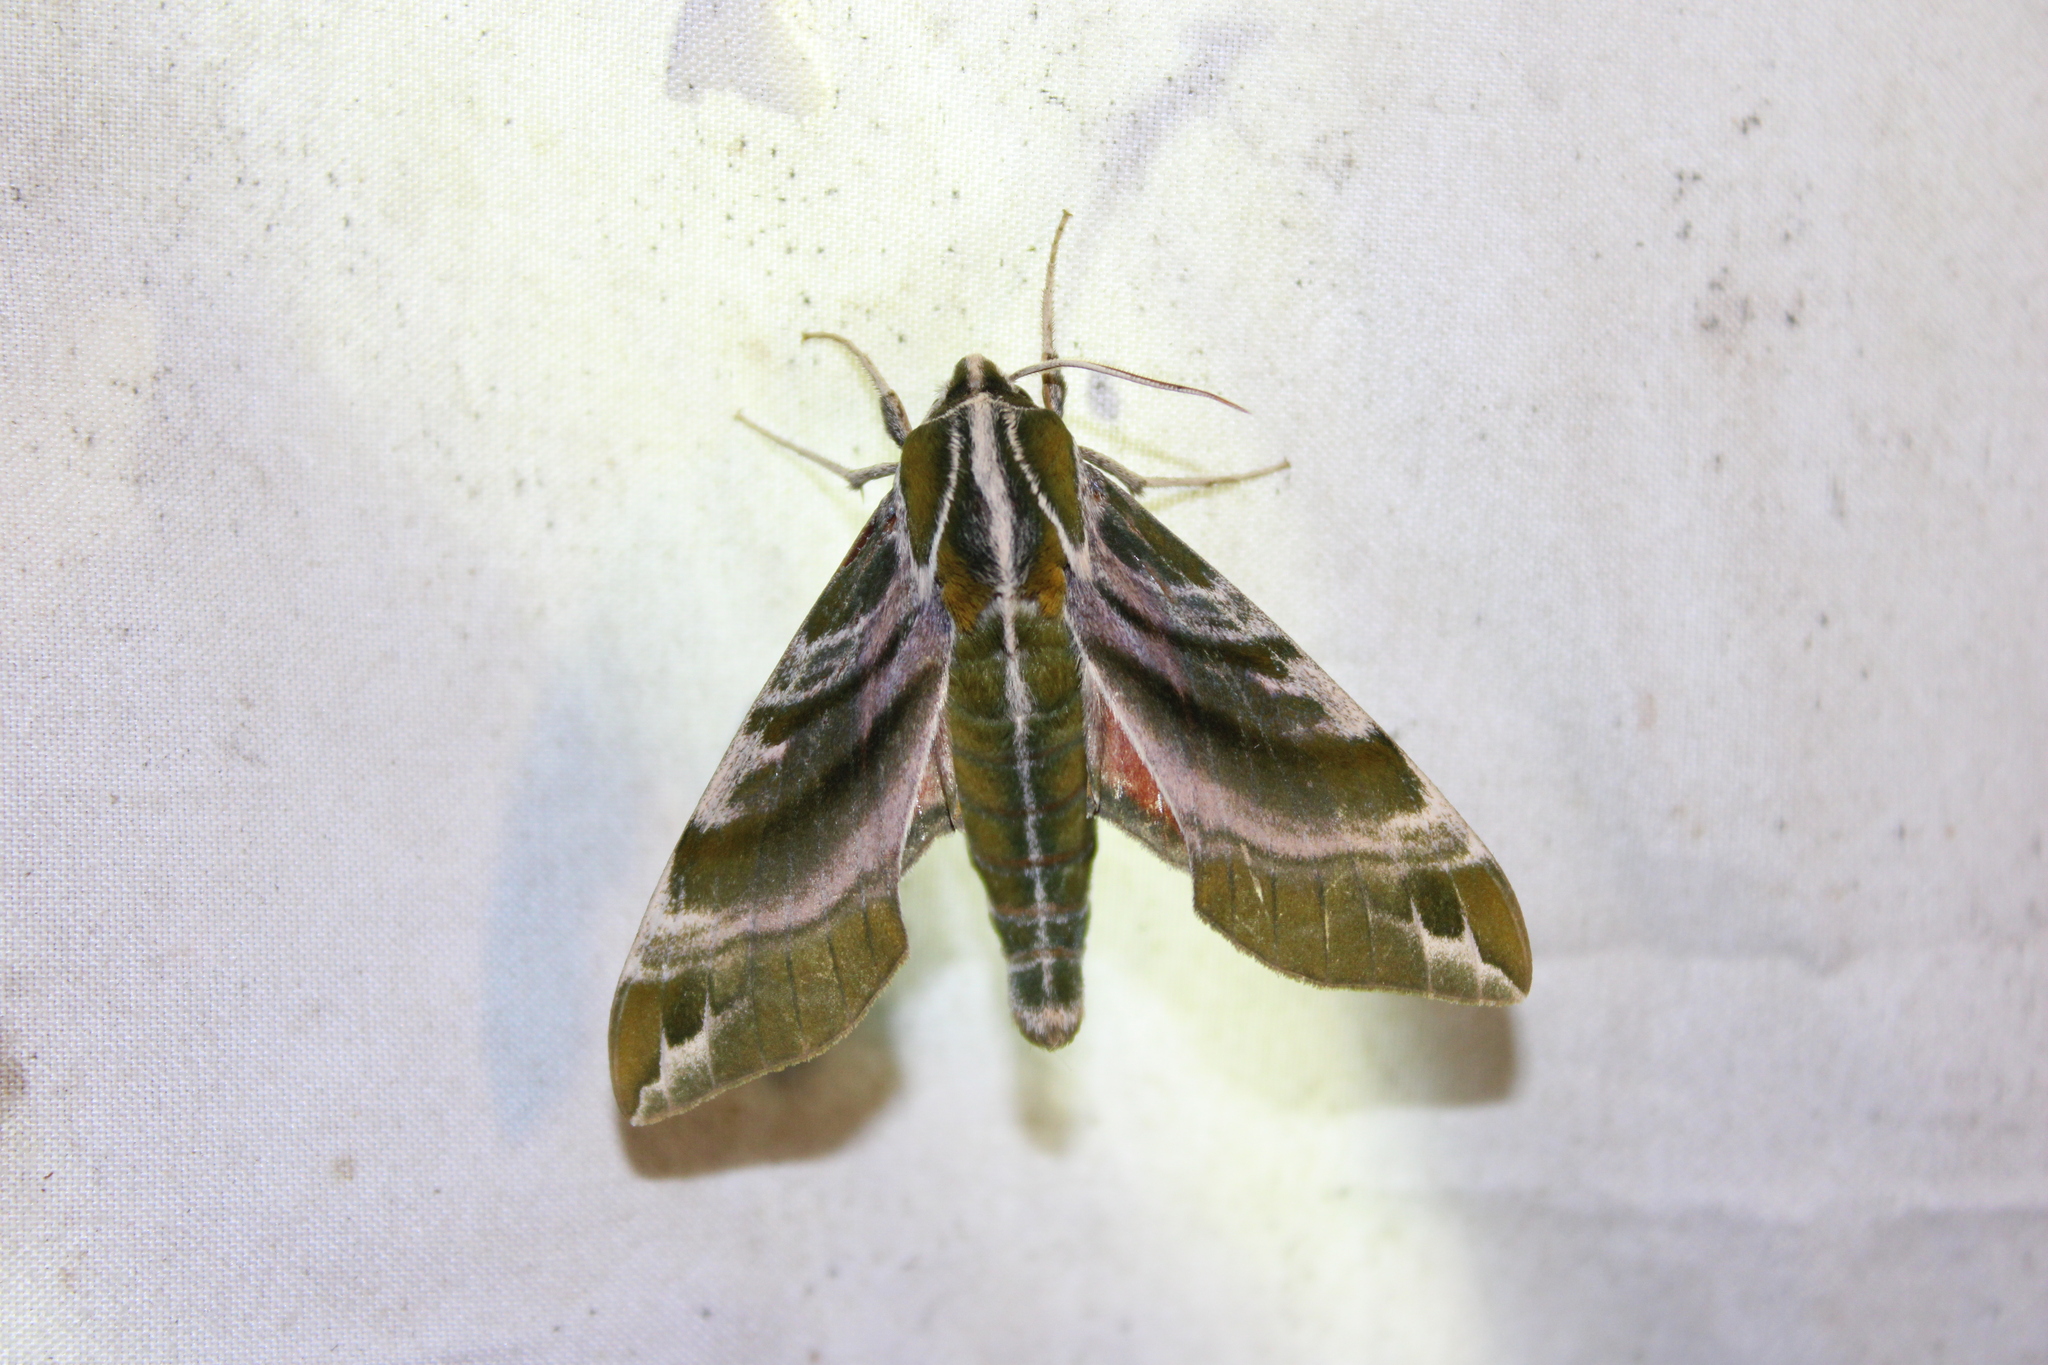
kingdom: Animalia
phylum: Arthropoda
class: Insecta
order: Lepidoptera
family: Sphingidae
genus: Darapsa
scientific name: Darapsa versicolor
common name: Hydrangea sphinx
